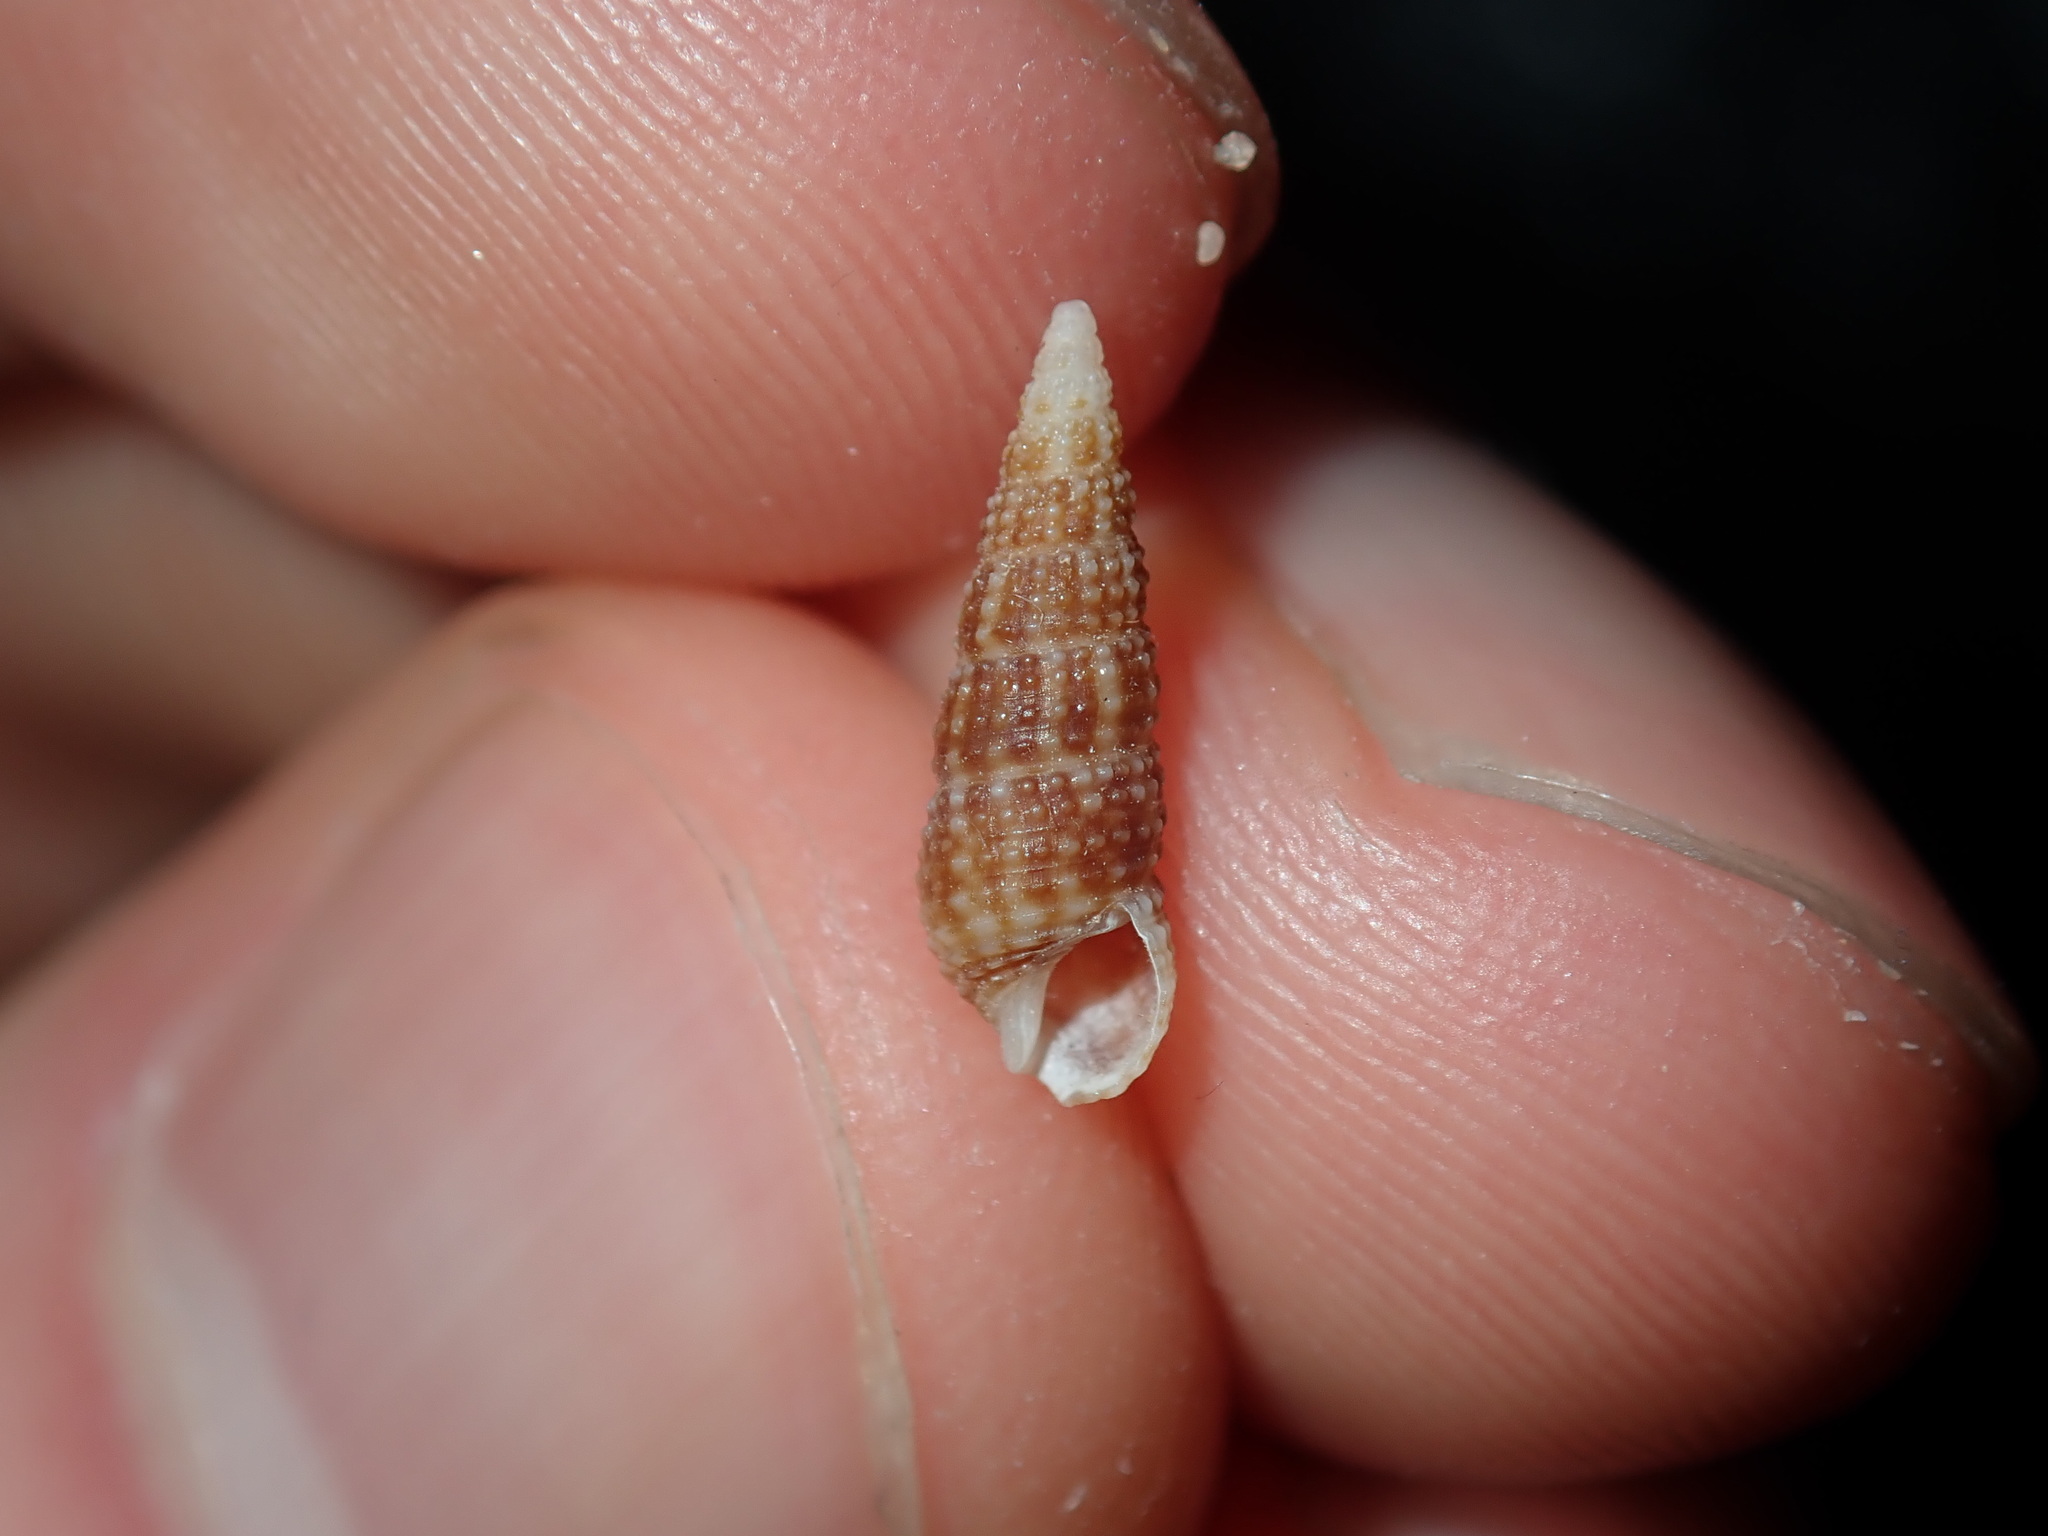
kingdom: Animalia
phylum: Mollusca
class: Gastropoda
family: Cerithiidae
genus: Cacozeliana
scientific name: Cacozeliana granarium
